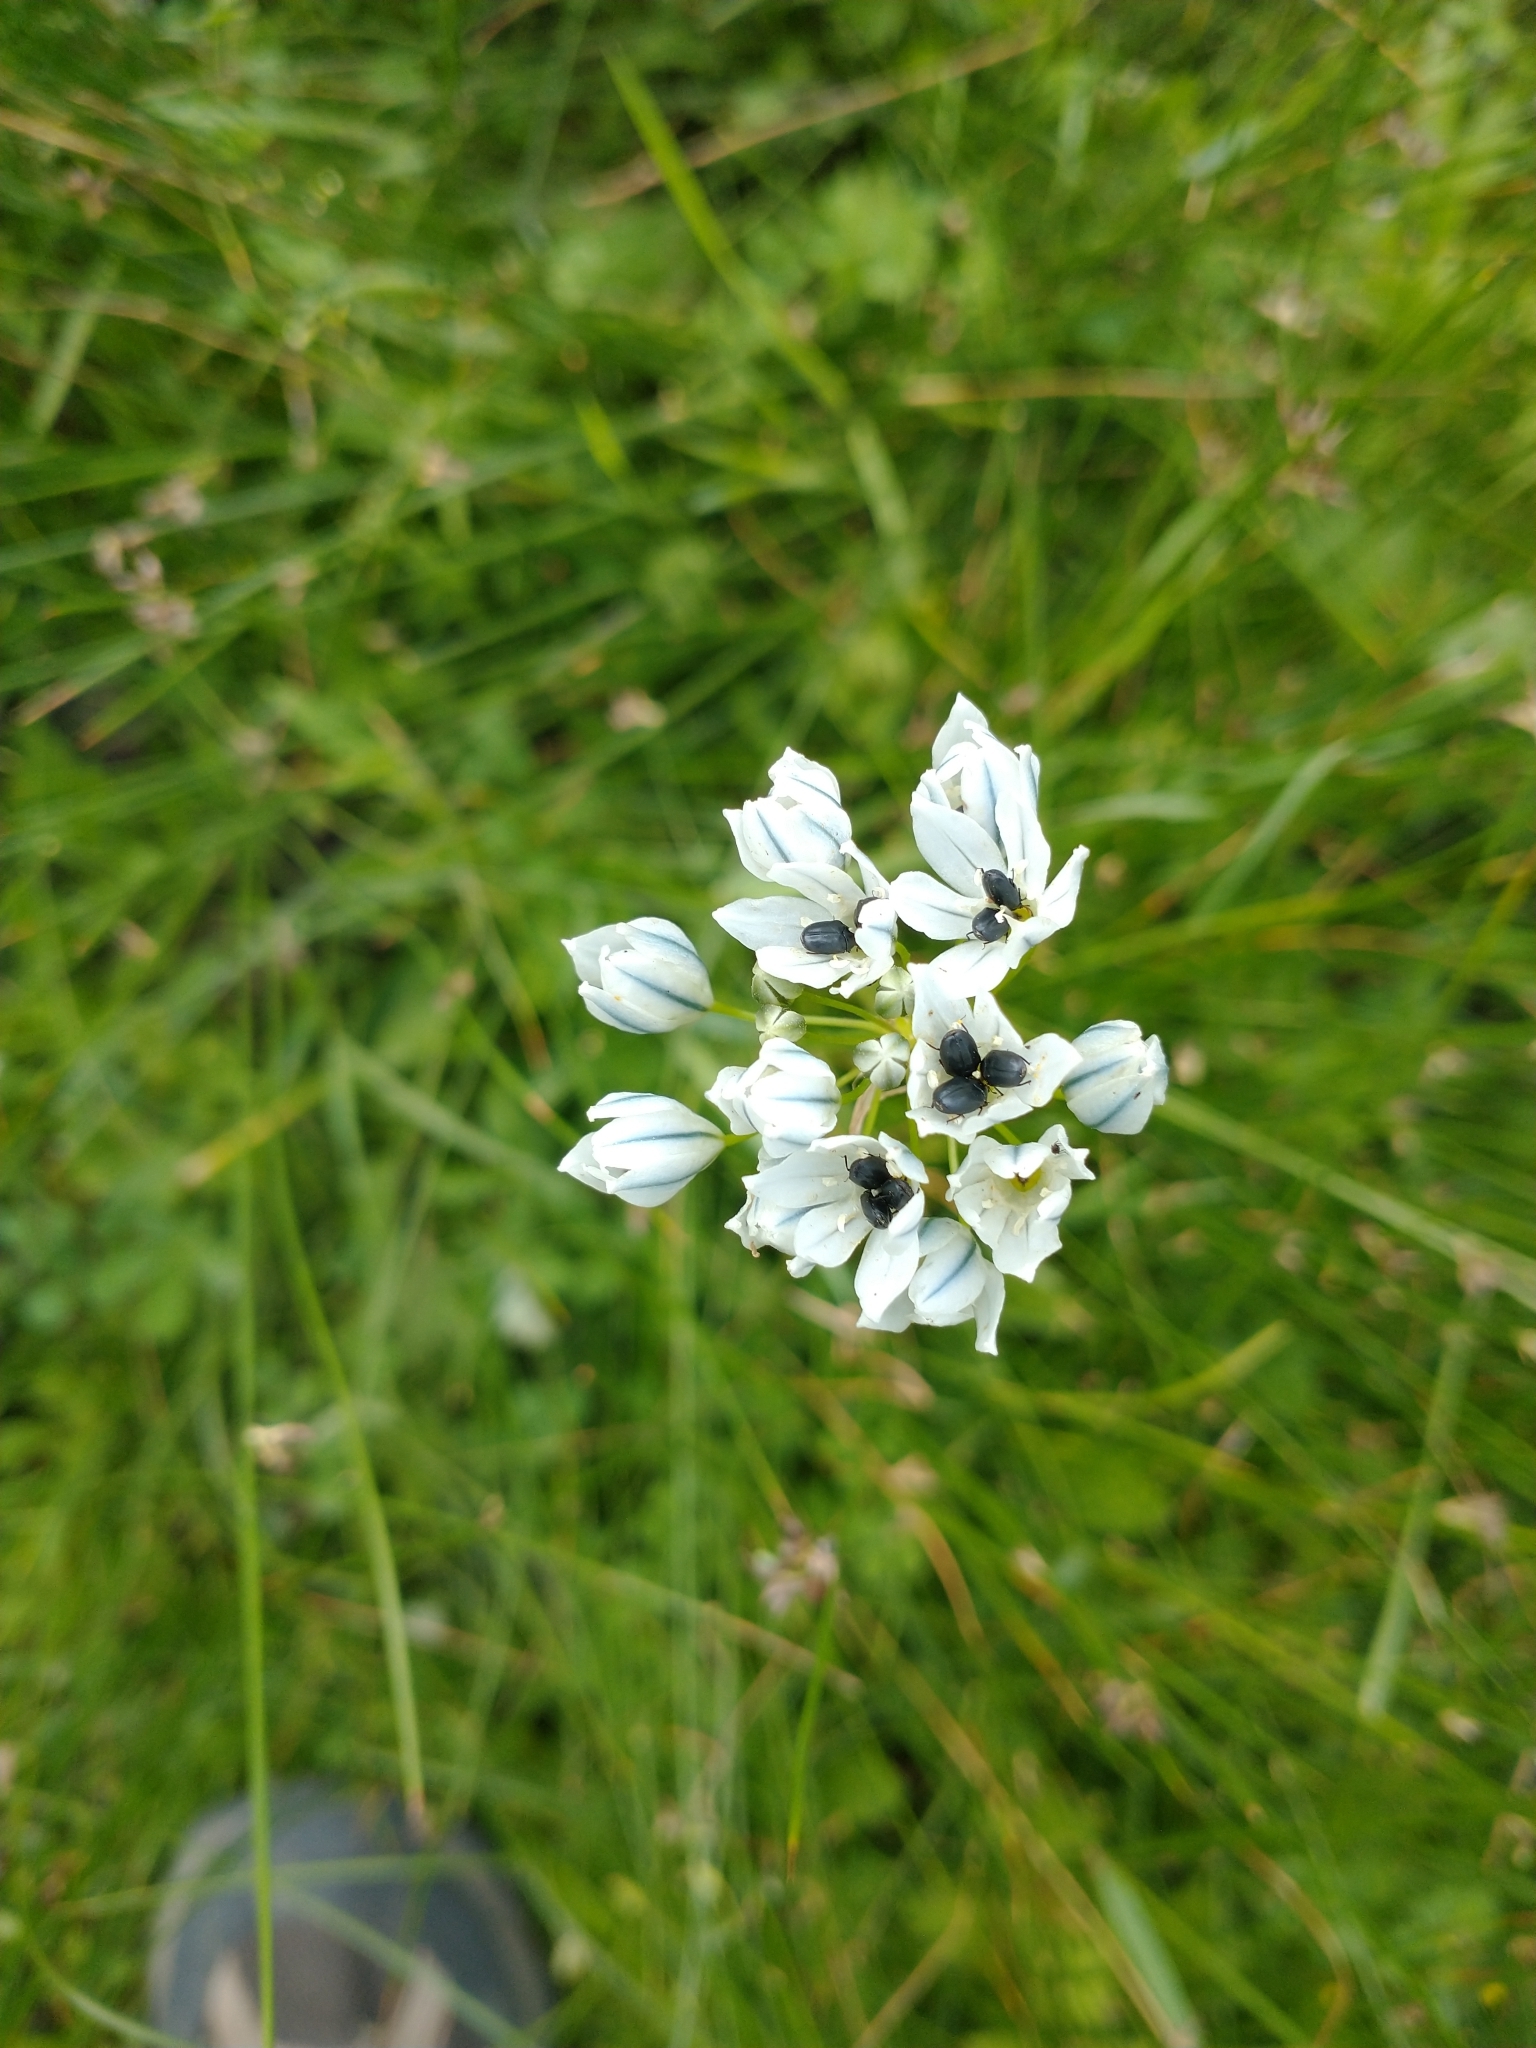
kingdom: Plantae
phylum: Tracheophyta
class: Liliopsida
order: Asparagales
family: Asparagaceae
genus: Triteleia
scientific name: Triteleia hyacinthina
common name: White brodiaea
